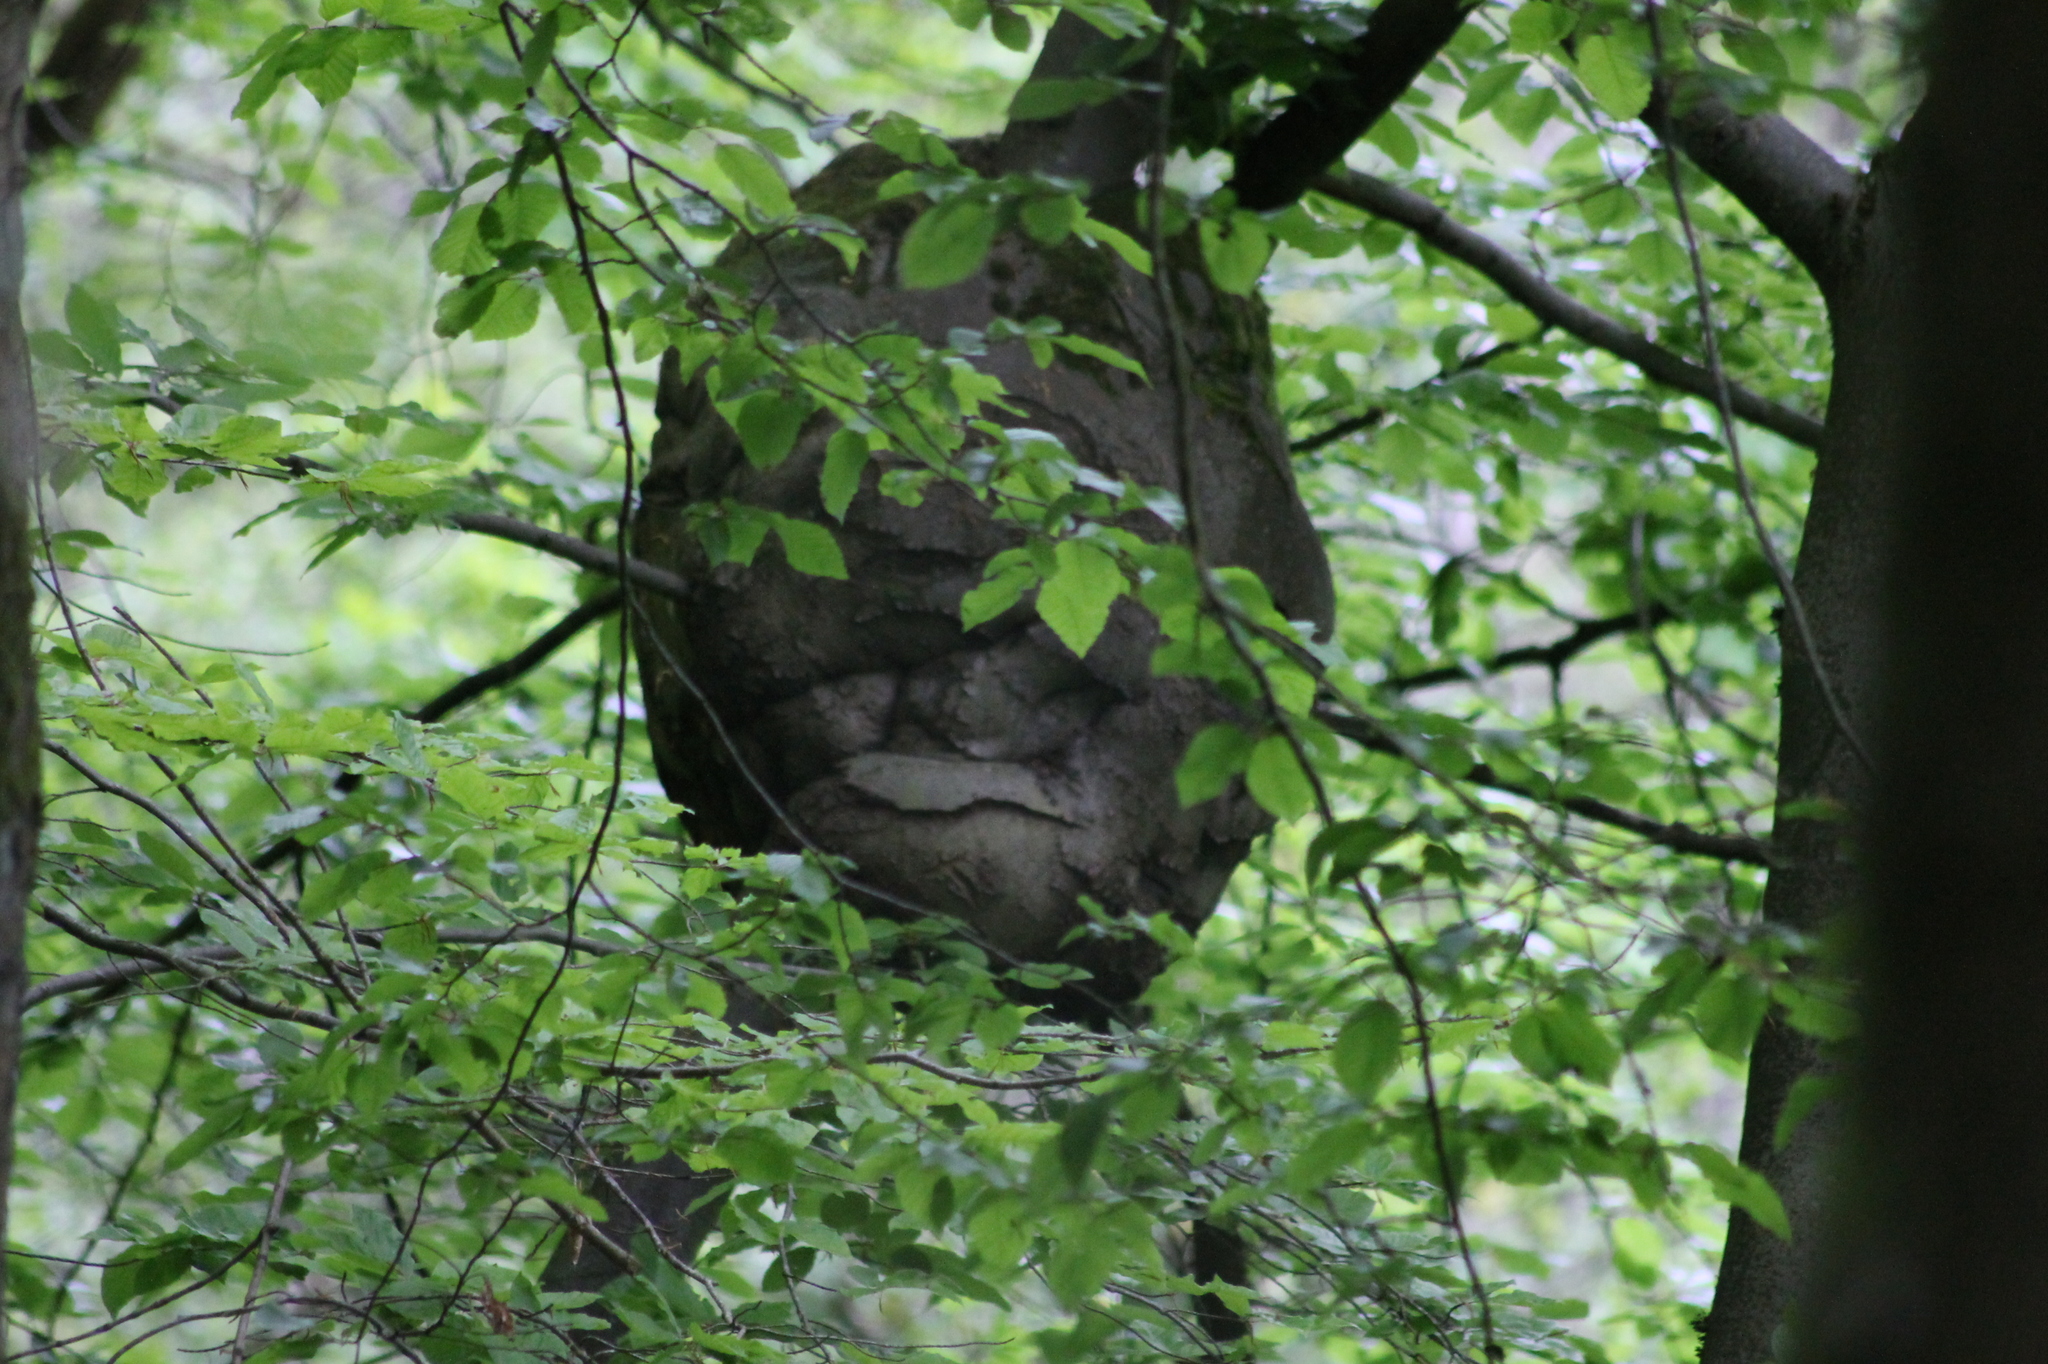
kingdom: Plantae
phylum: Tracheophyta
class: Magnoliopsida
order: Fagales
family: Fagaceae
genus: Fagus
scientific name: Fagus sylvatica
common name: Beech
